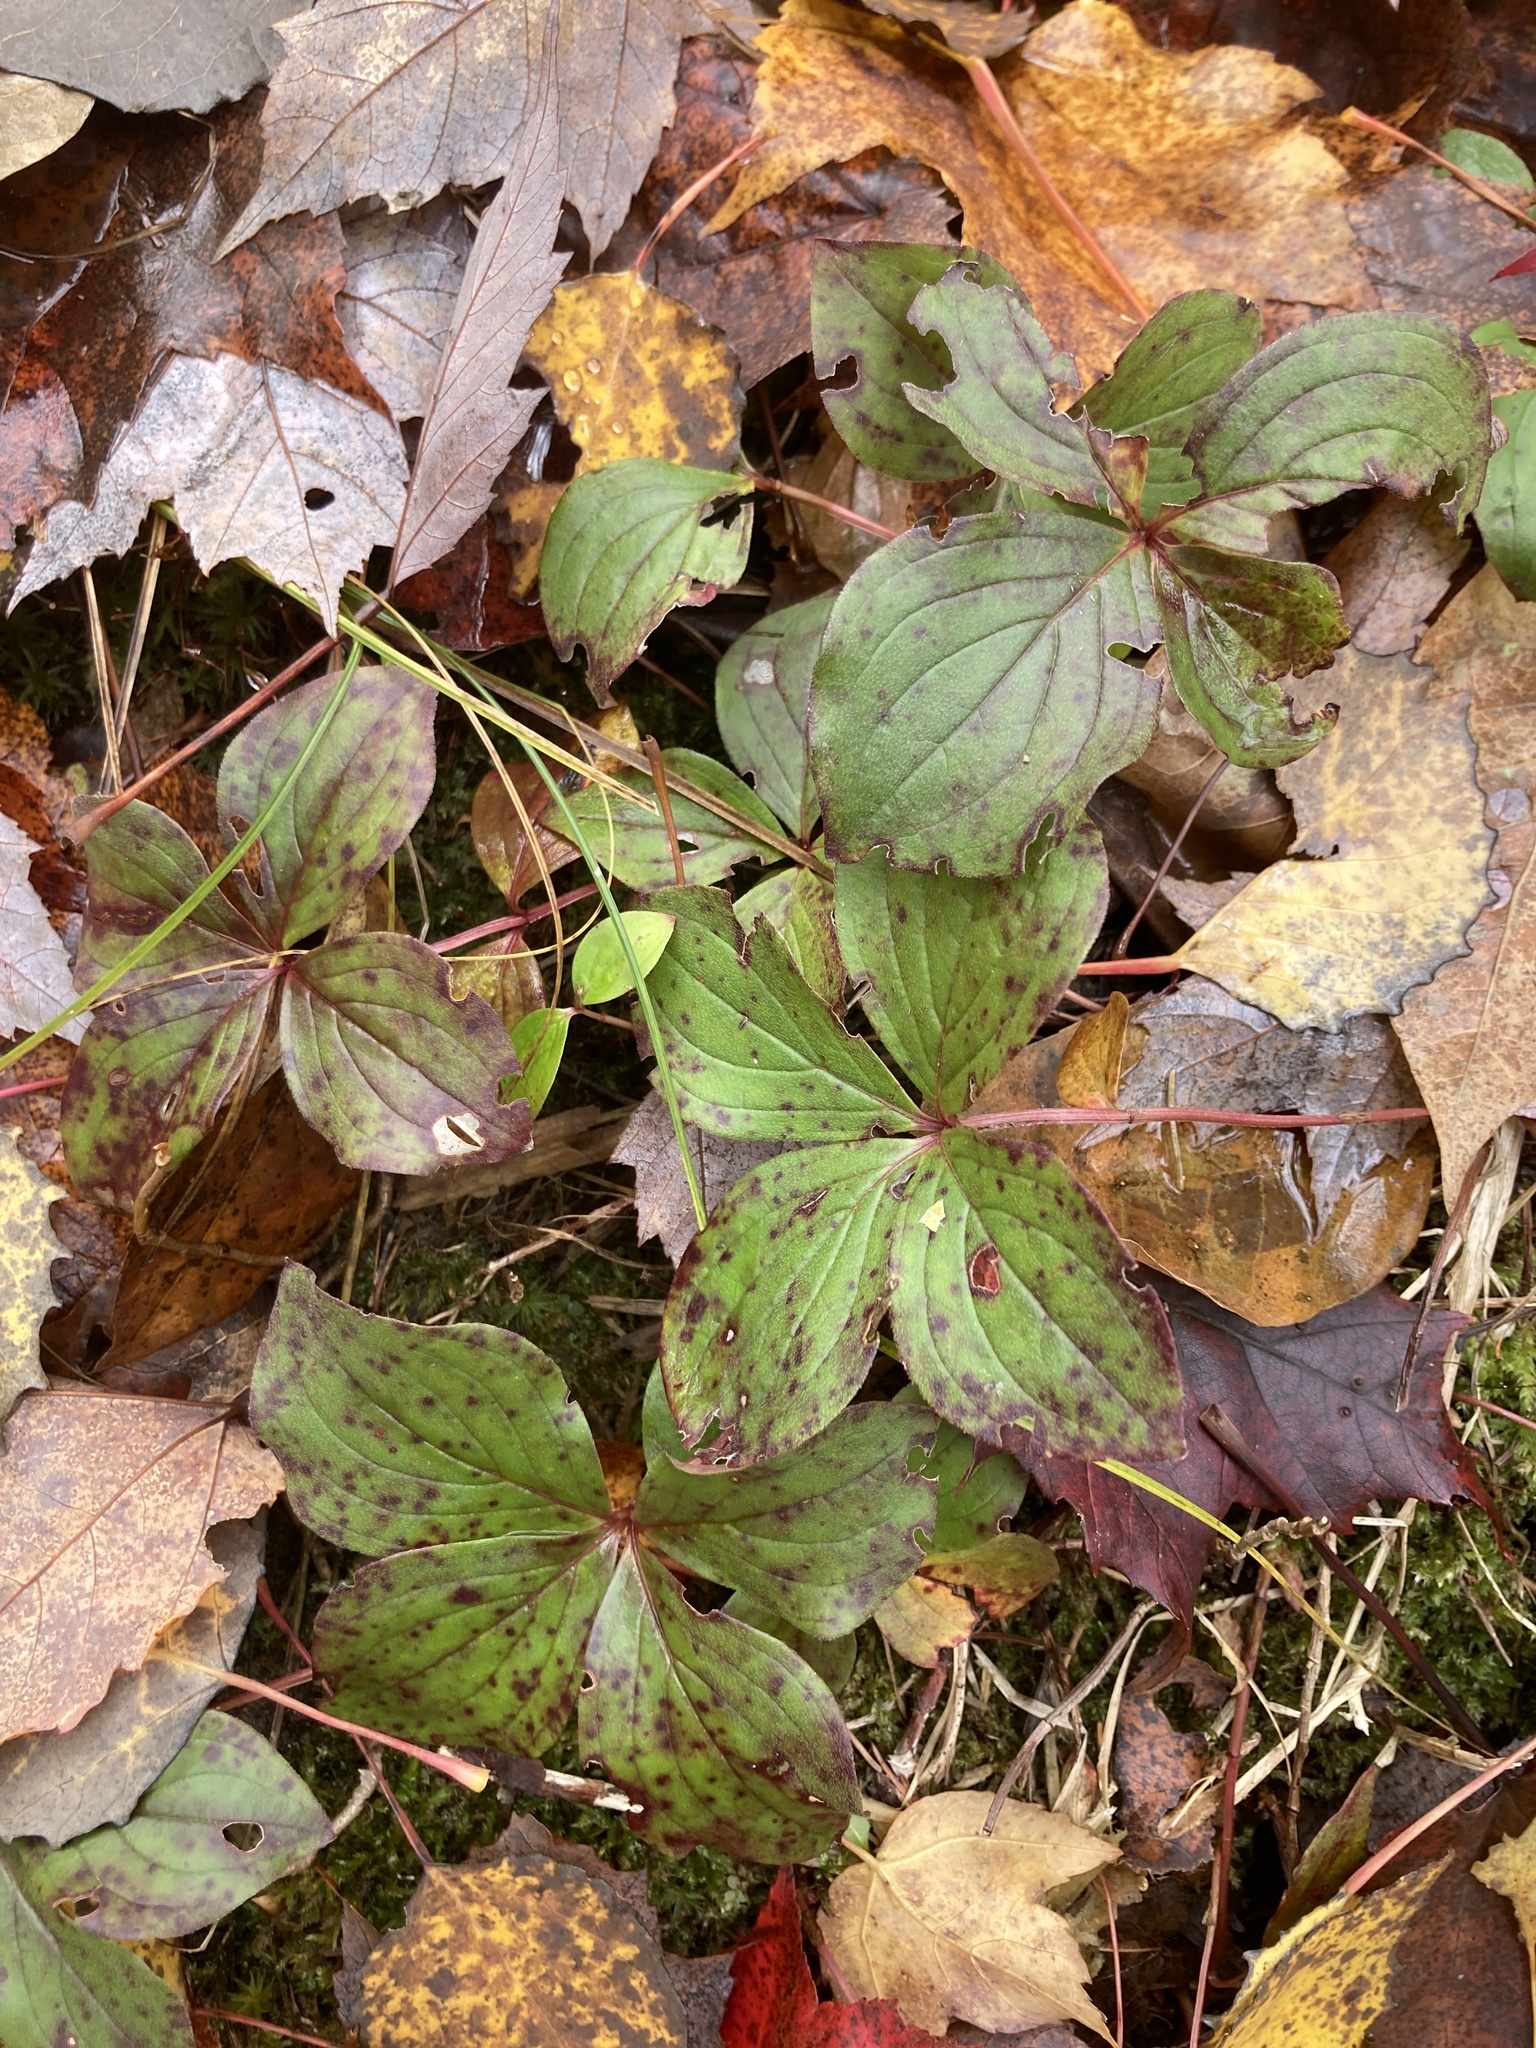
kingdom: Plantae
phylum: Tracheophyta
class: Magnoliopsida
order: Cornales
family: Cornaceae
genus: Cornus
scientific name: Cornus canadensis
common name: Creeping dogwood
